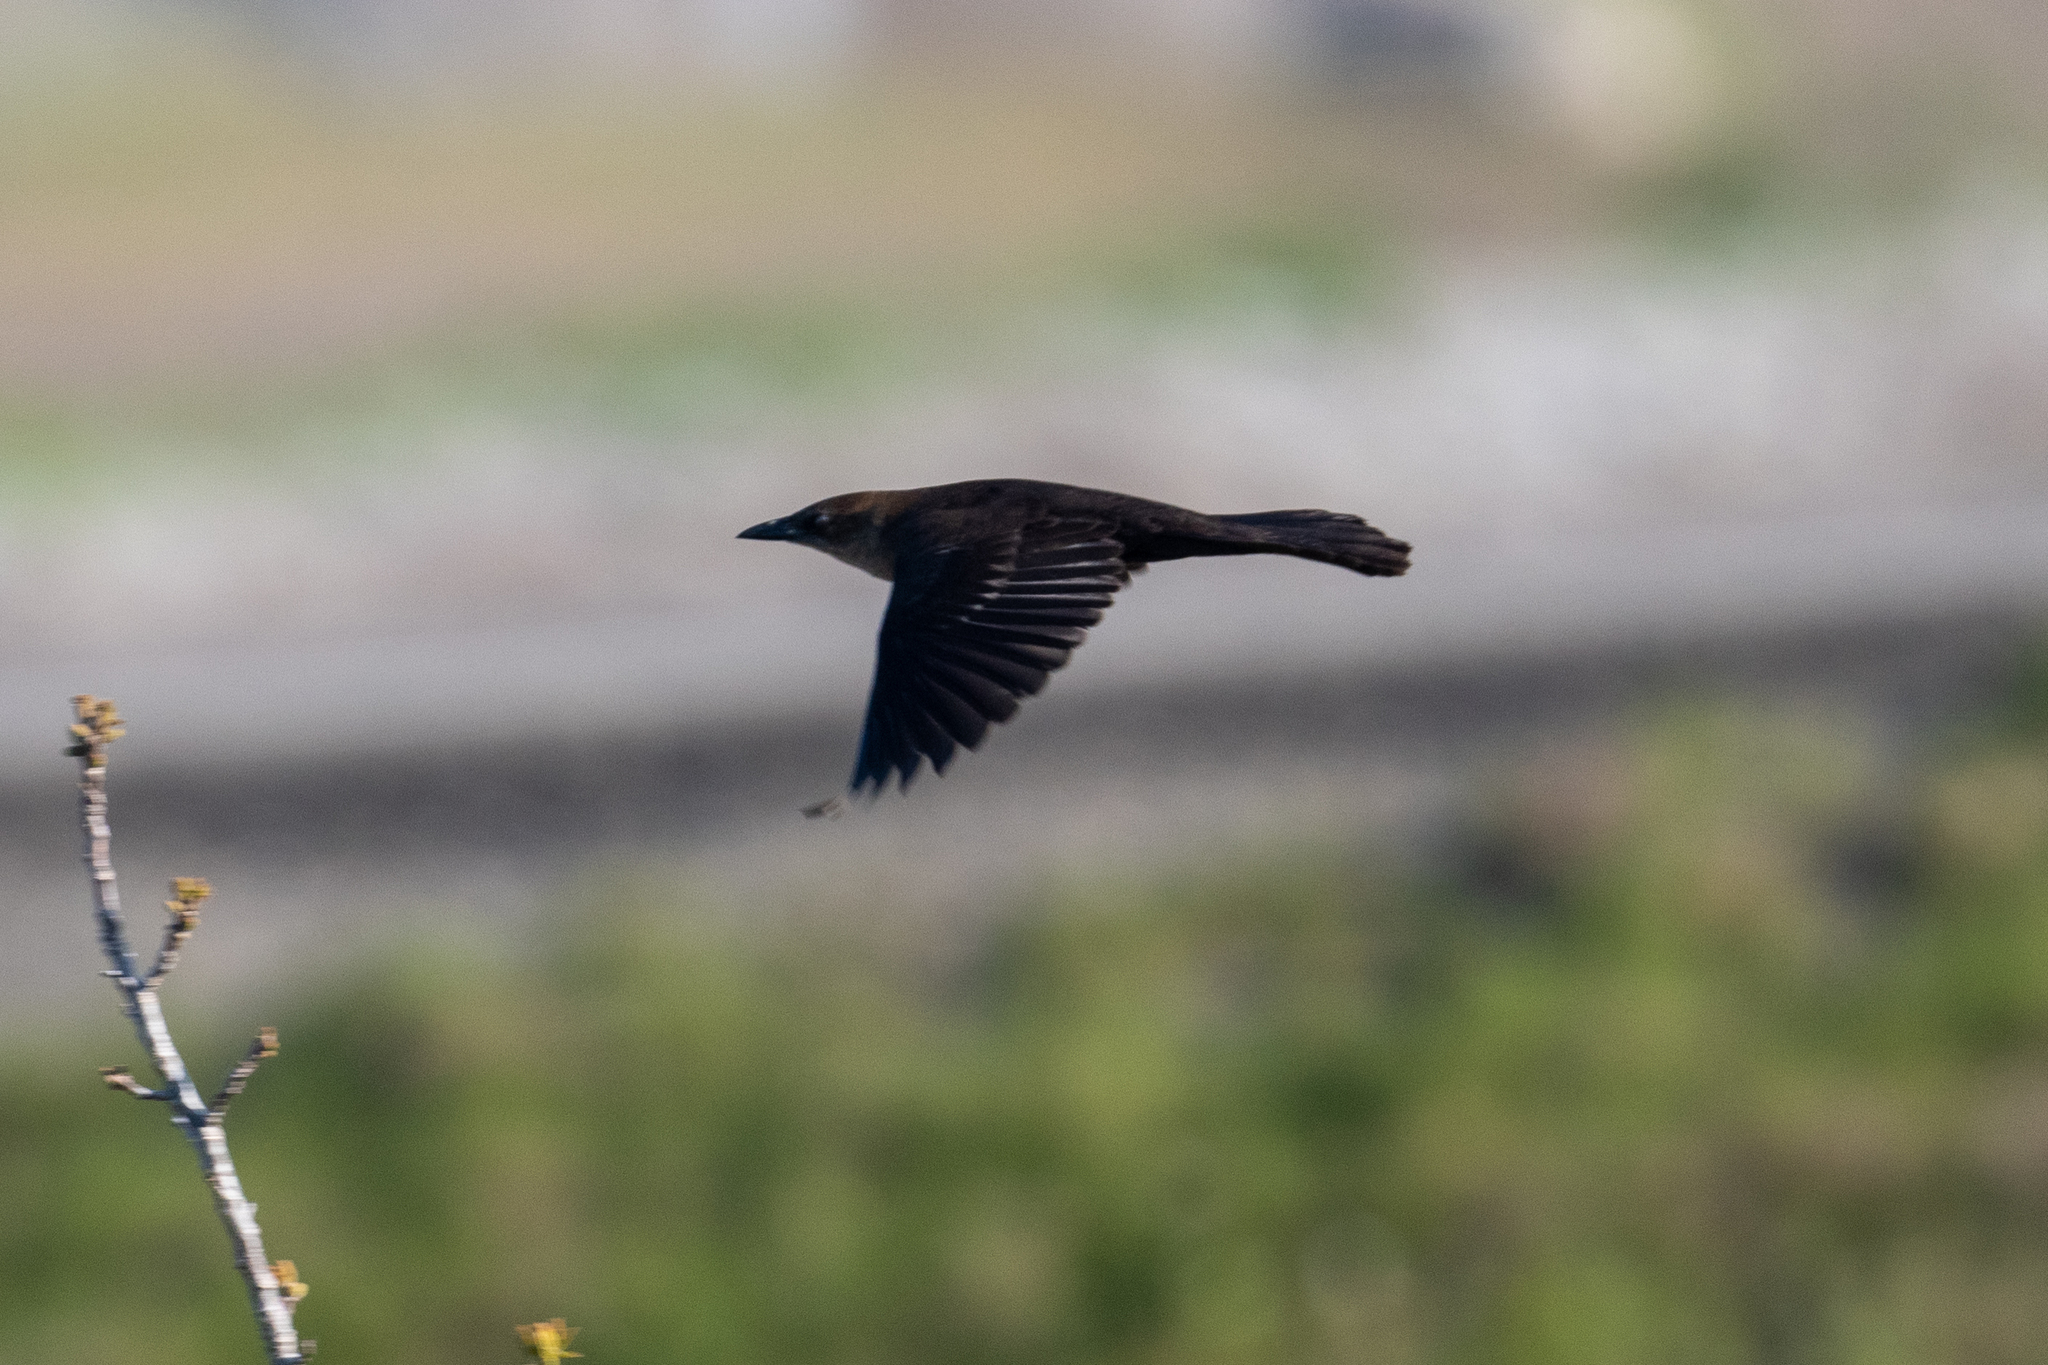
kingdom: Animalia
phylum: Chordata
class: Aves
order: Passeriformes
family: Icteridae
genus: Quiscalus
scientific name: Quiscalus mexicanus
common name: Great-tailed grackle
